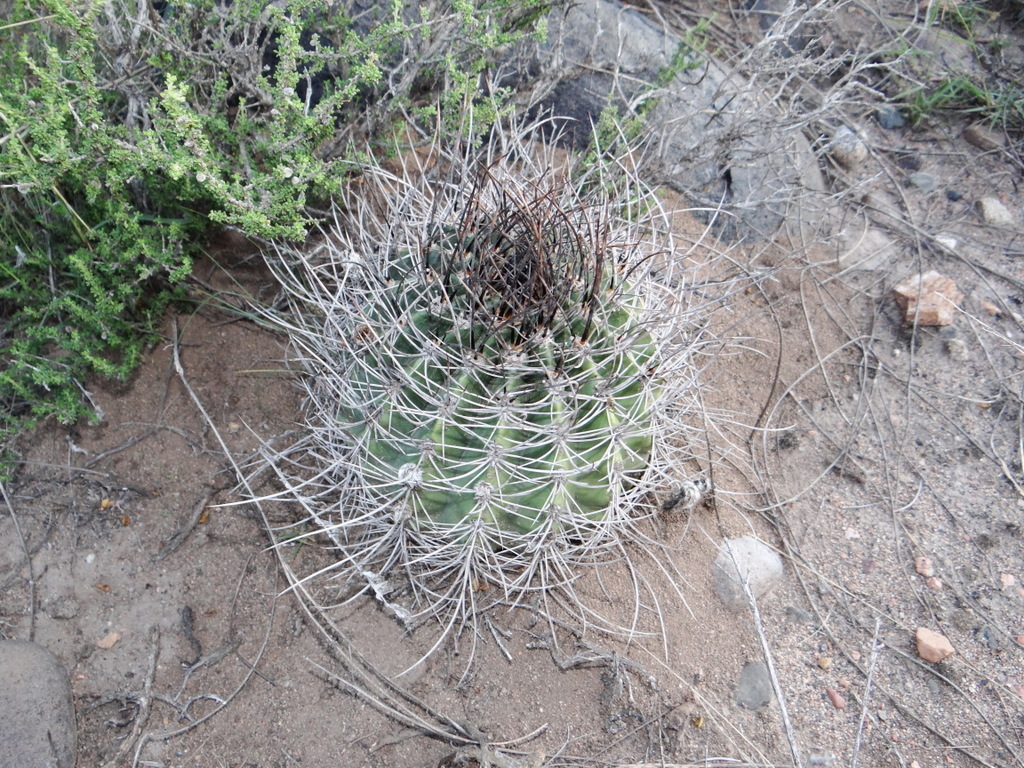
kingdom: Plantae
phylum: Tracheophyta
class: Magnoliopsida
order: Caryophyllales
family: Cactaceae
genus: Acanthocalycium
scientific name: Acanthocalycium leucanthum
